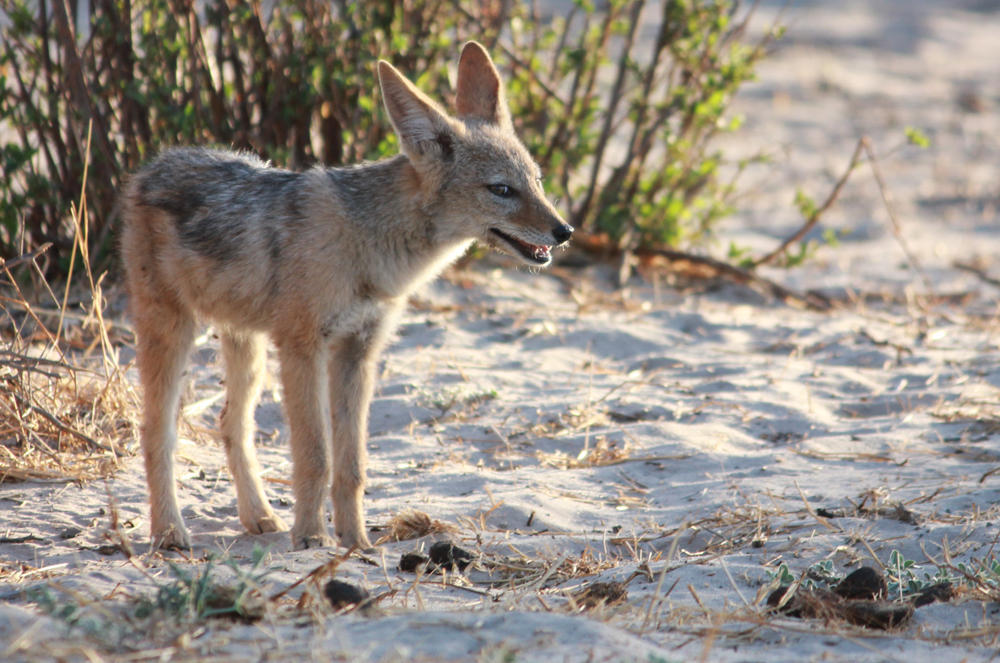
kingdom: Animalia
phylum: Chordata
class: Mammalia
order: Carnivora
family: Canidae
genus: Lupulella
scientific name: Lupulella
